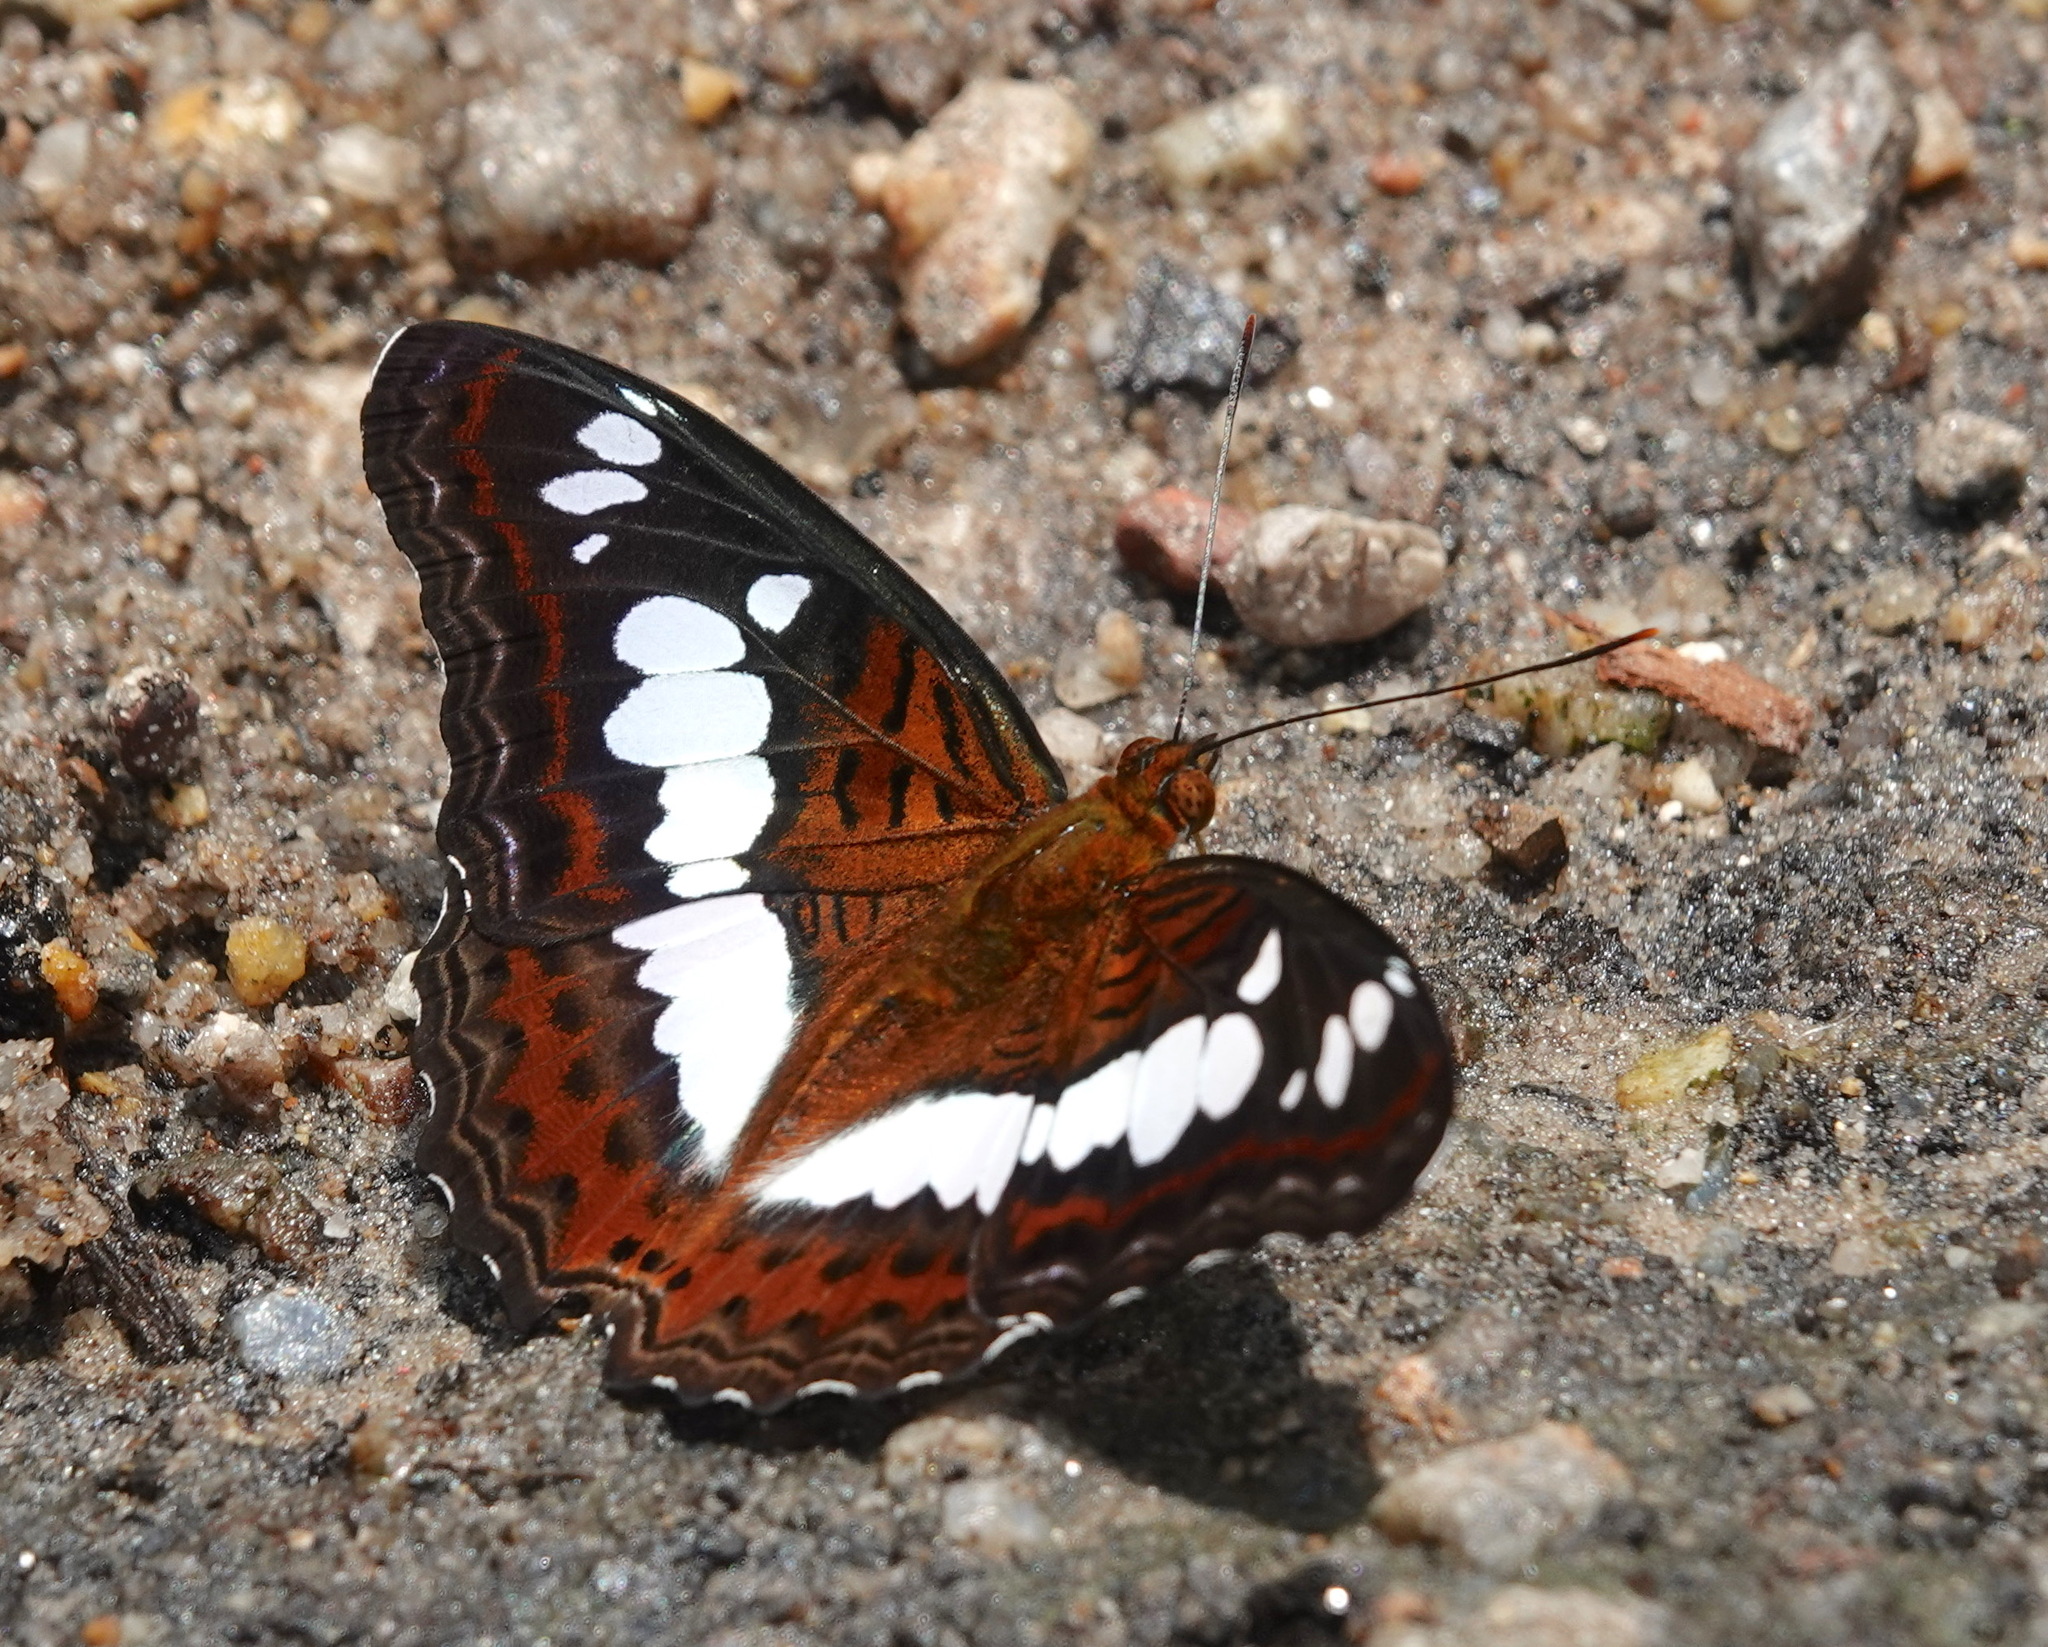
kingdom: Animalia
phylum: Arthropoda
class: Insecta
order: Lepidoptera
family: Nymphalidae
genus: Limenitis
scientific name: Limenitis Moduza procris
